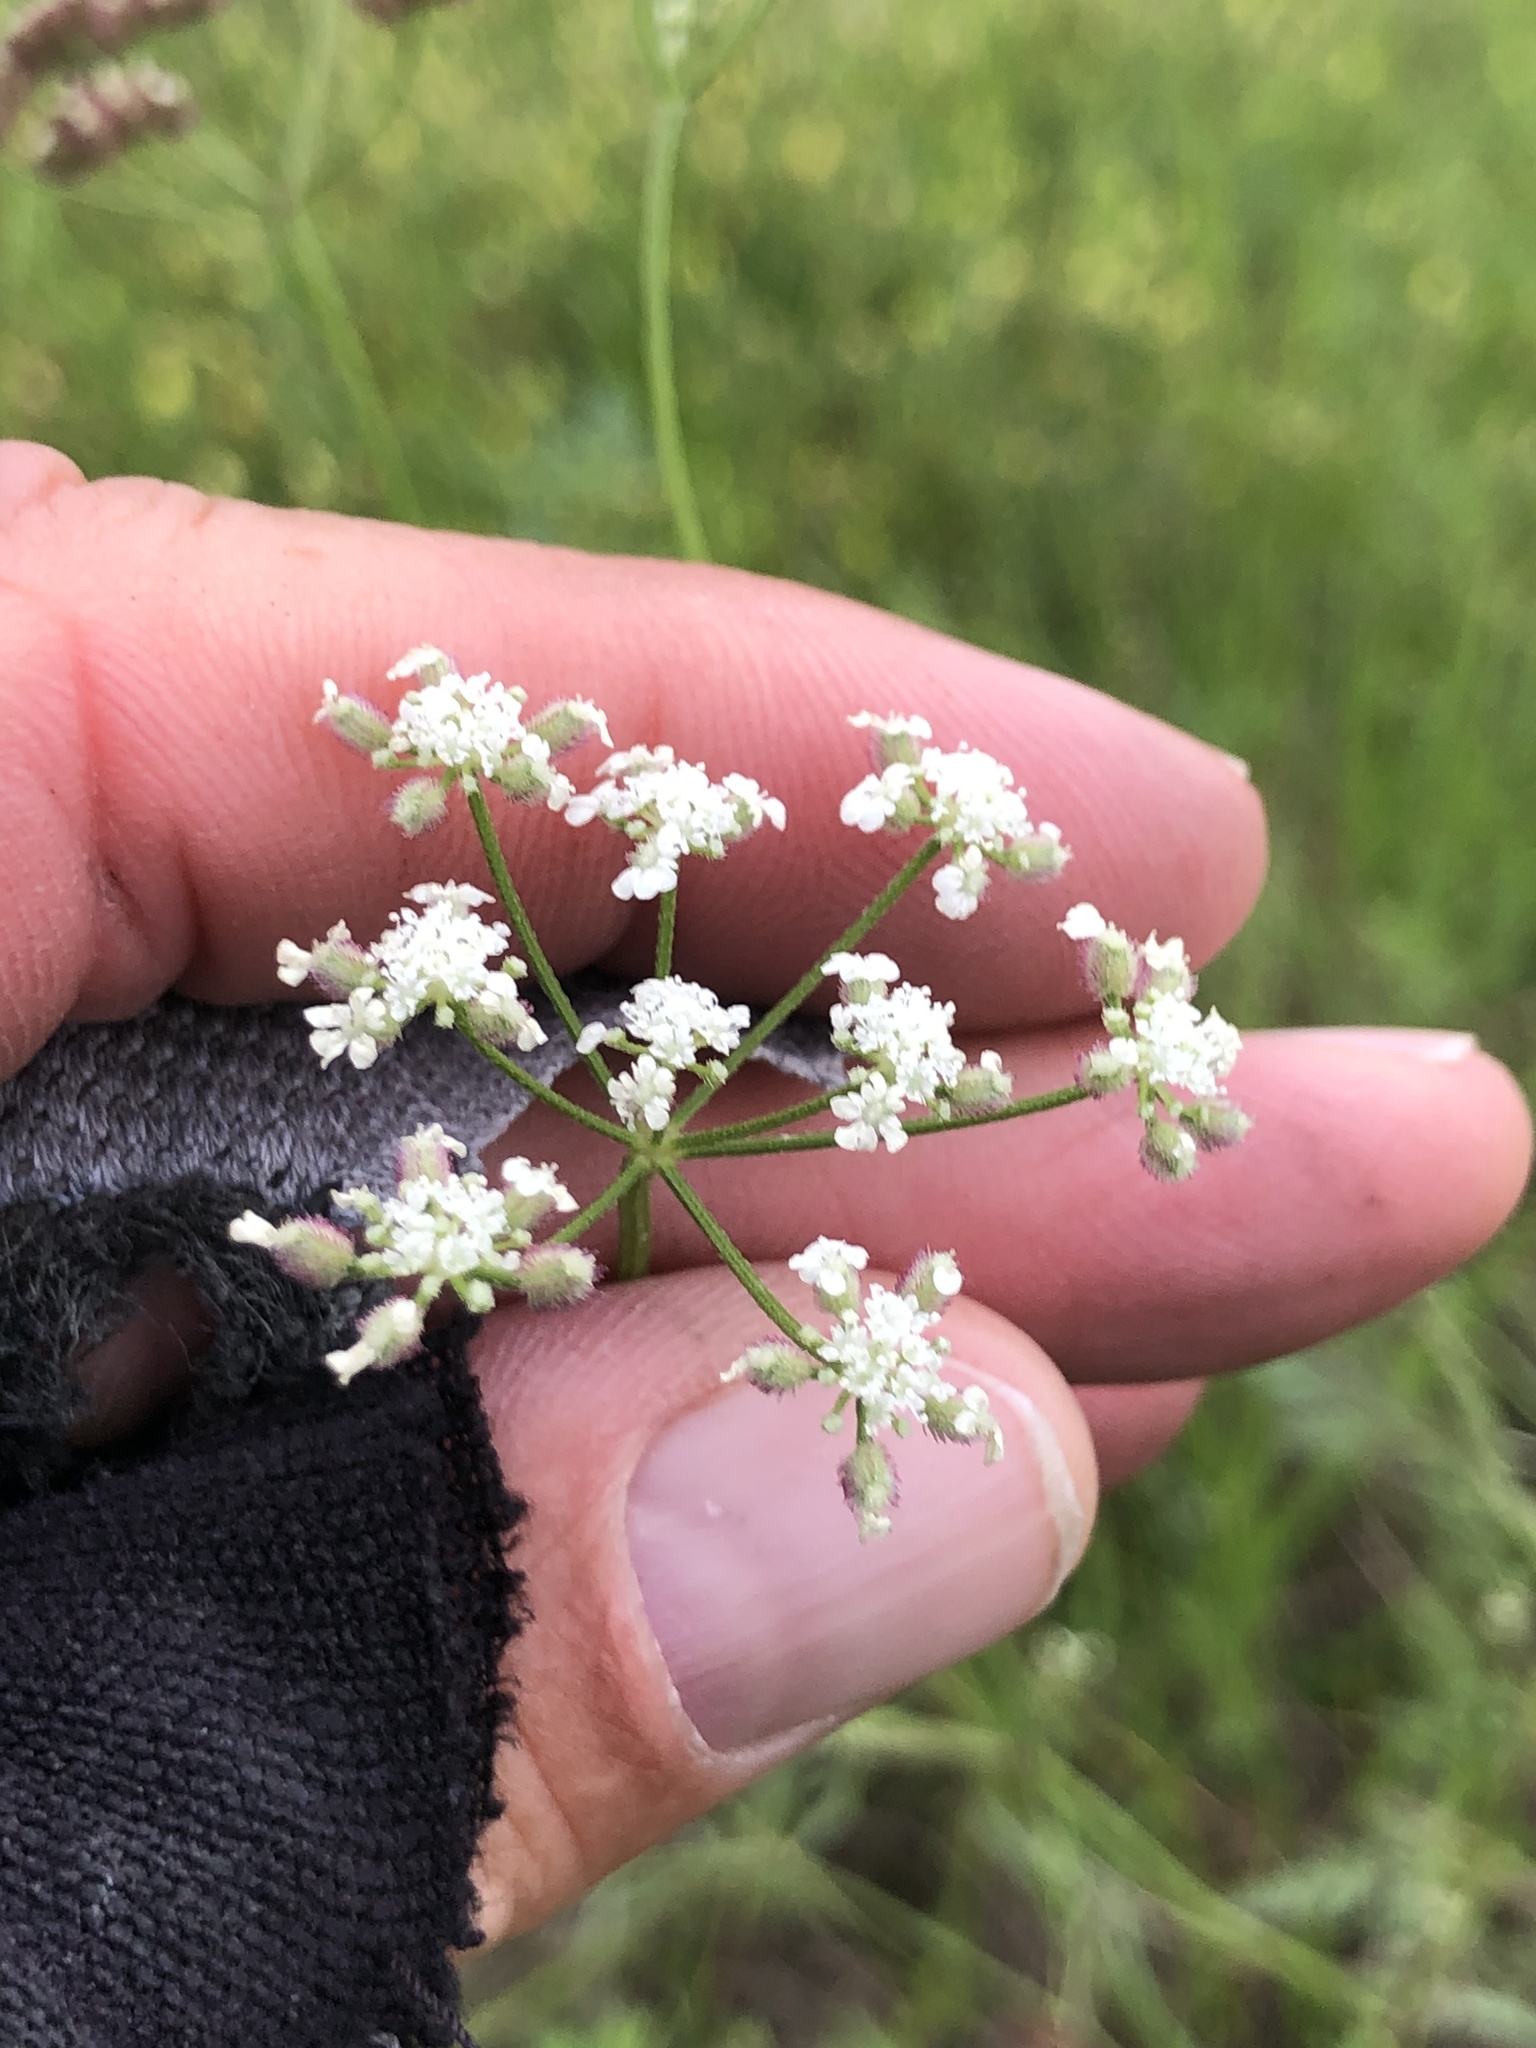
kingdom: Plantae
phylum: Tracheophyta
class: Magnoliopsida
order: Apiales
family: Apiaceae
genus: Torilis
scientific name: Torilis arvensis
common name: Spreading hedge-parsley
